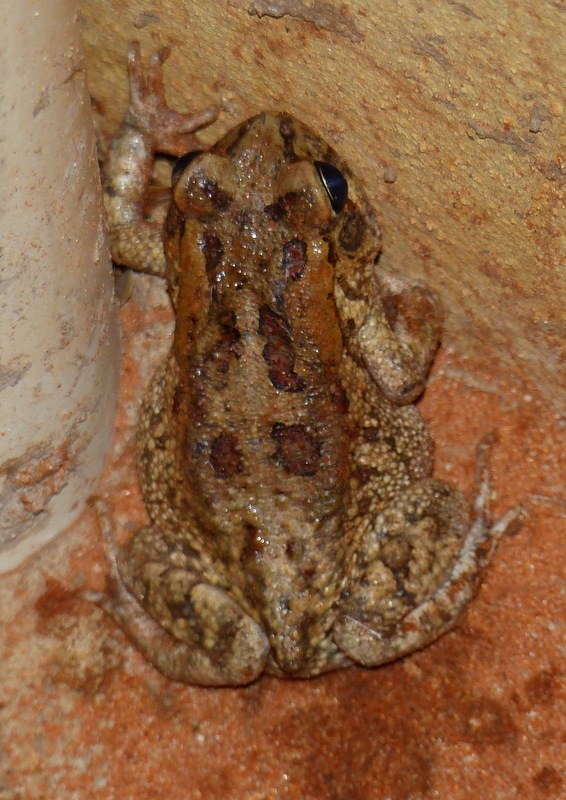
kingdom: Animalia
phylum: Chordata
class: Amphibia
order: Anura
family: Bufonidae
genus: Sclerophrys
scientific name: Sclerophrys garmani
